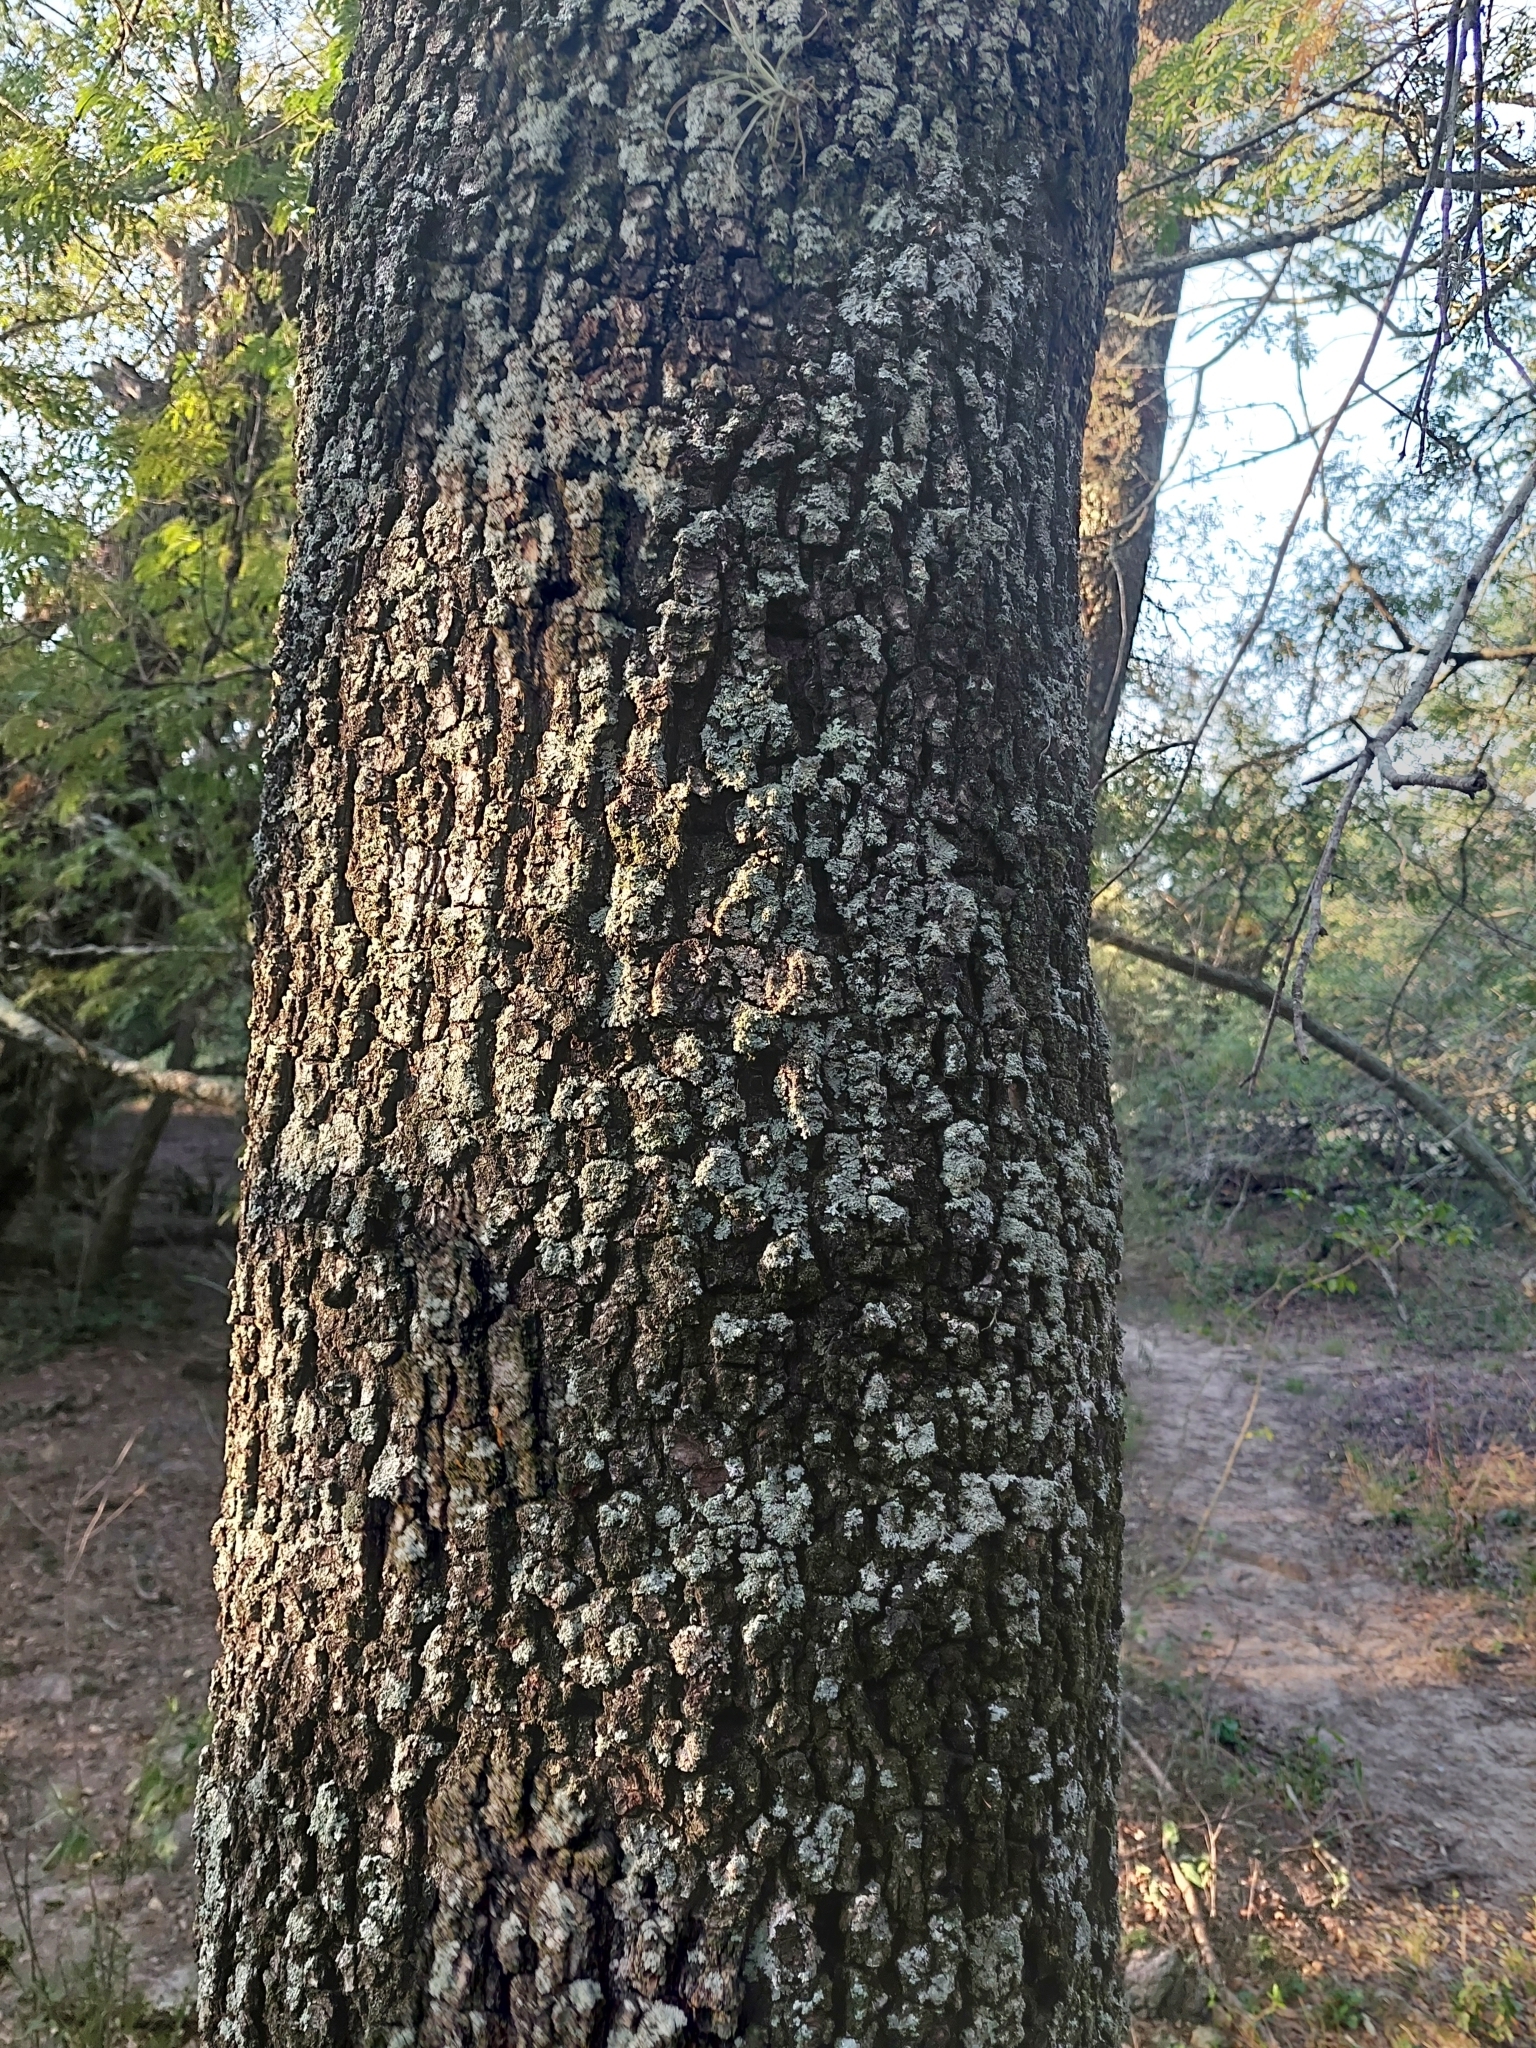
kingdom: Plantae
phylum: Tracheophyta
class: Magnoliopsida
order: Sapindales
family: Anacardiaceae
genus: Schinopsis
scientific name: Schinopsis balansae
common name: Red quebracho
